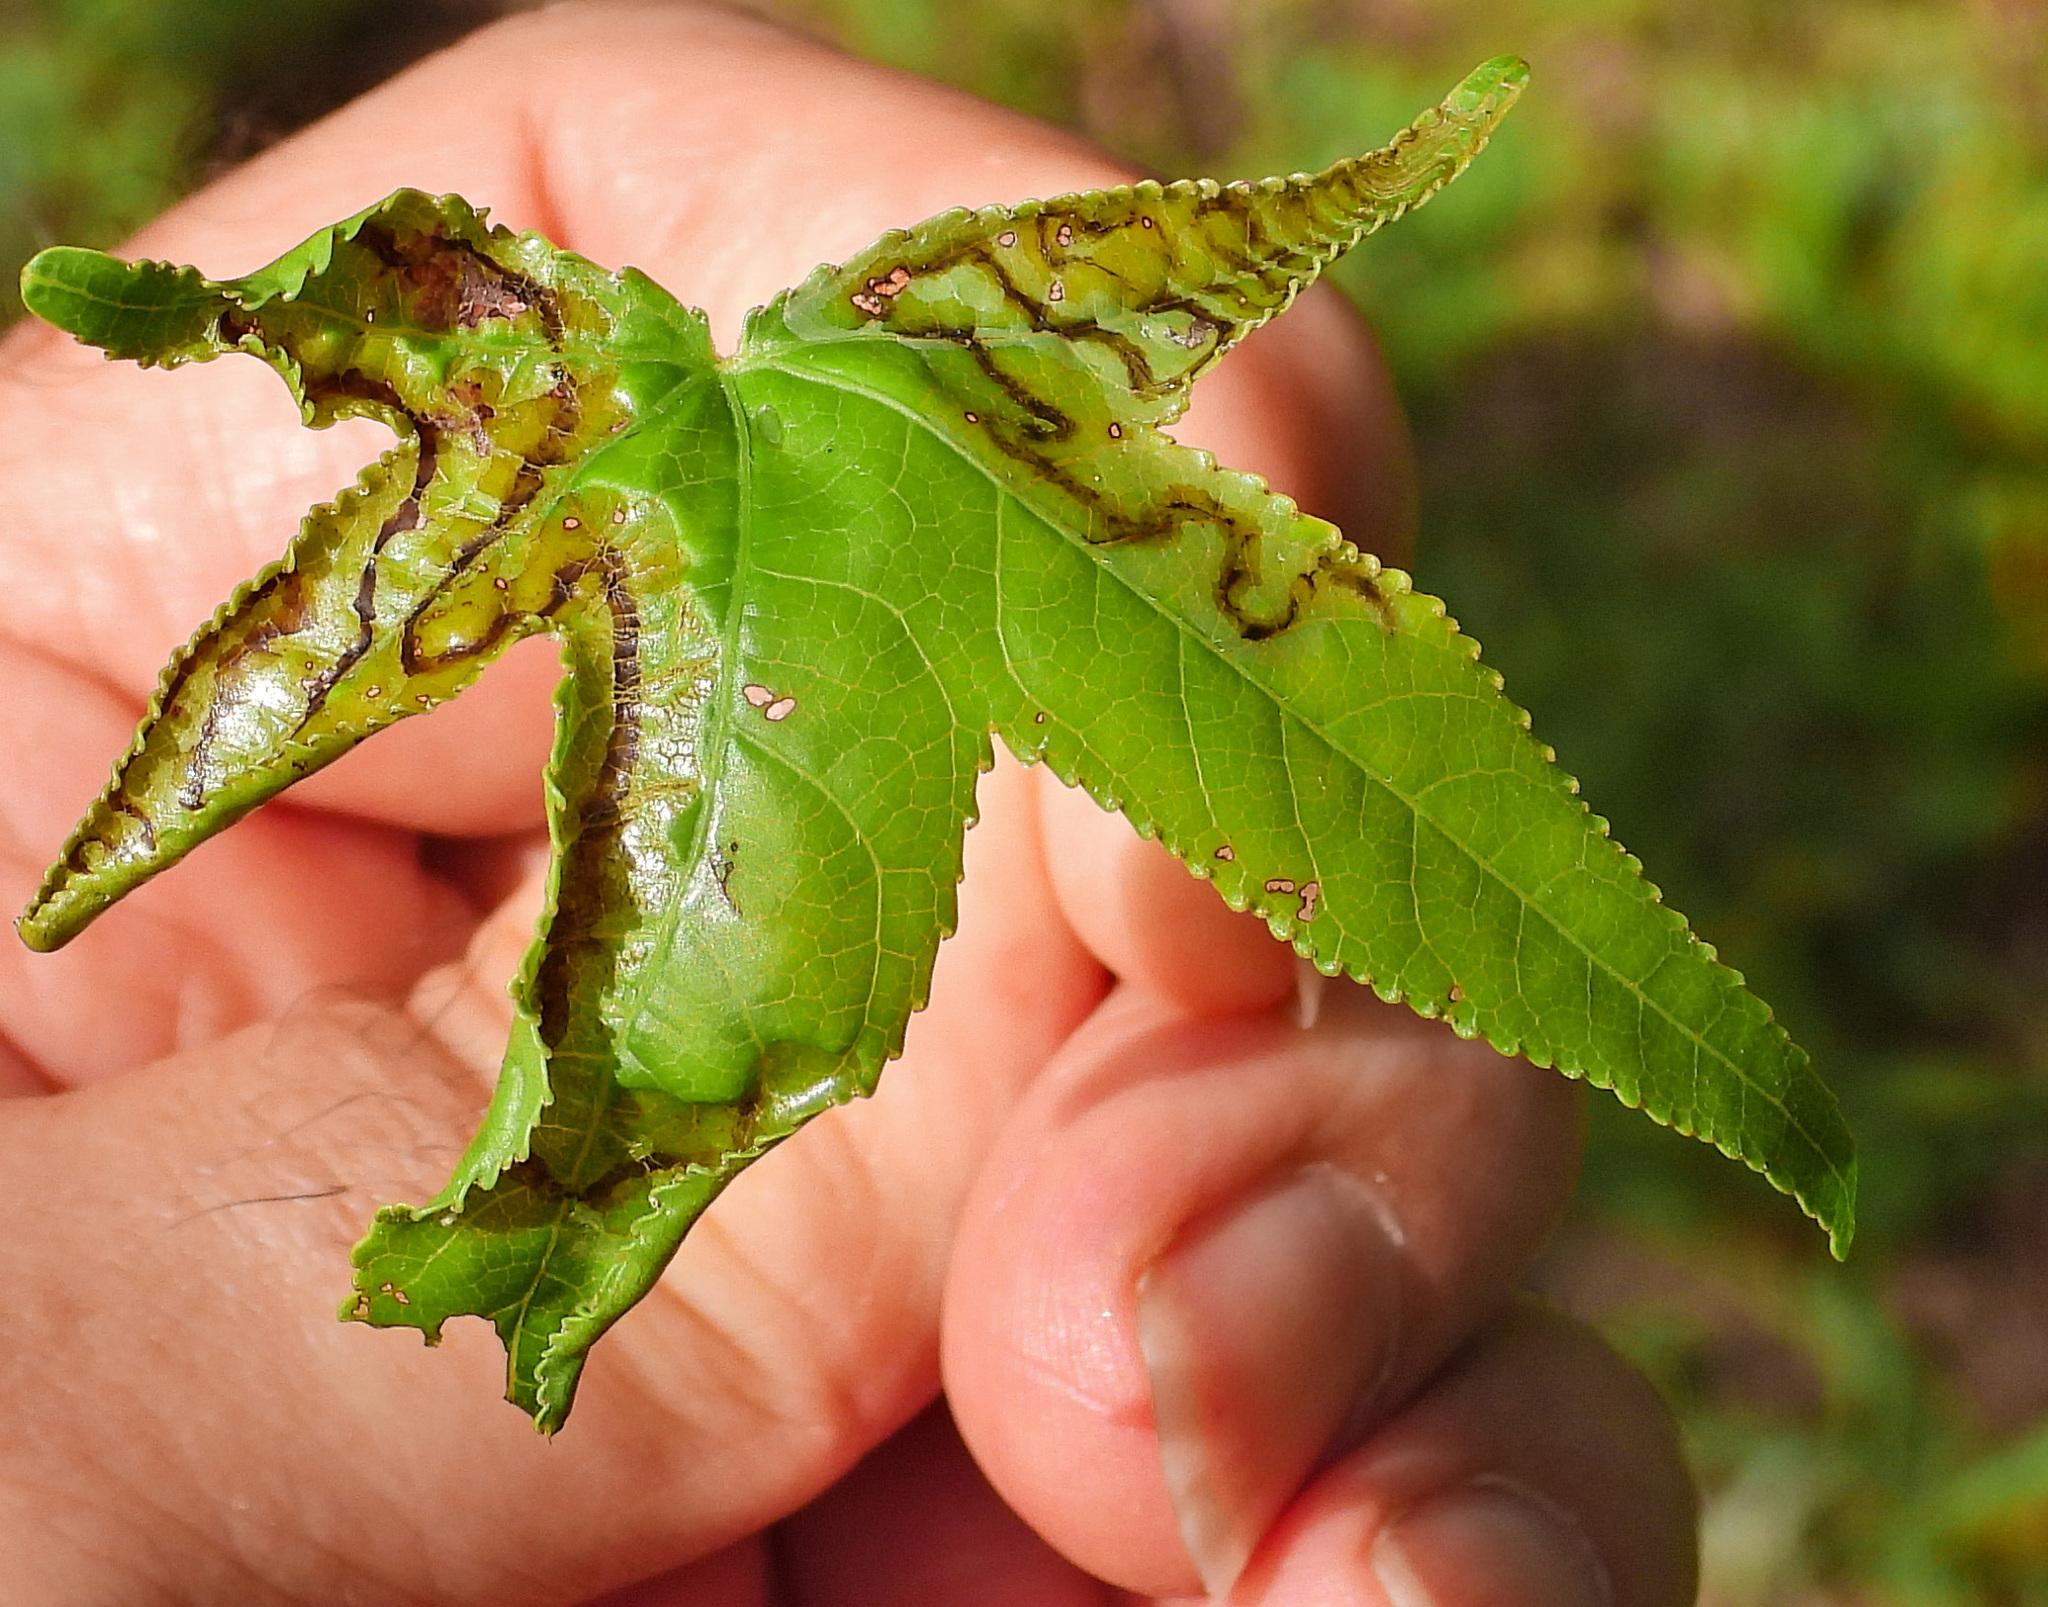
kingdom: Animalia
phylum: Arthropoda
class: Insecta
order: Lepidoptera
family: Gracillariidae
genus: Phyllocnistis
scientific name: Phyllocnistis liquidambarisella
